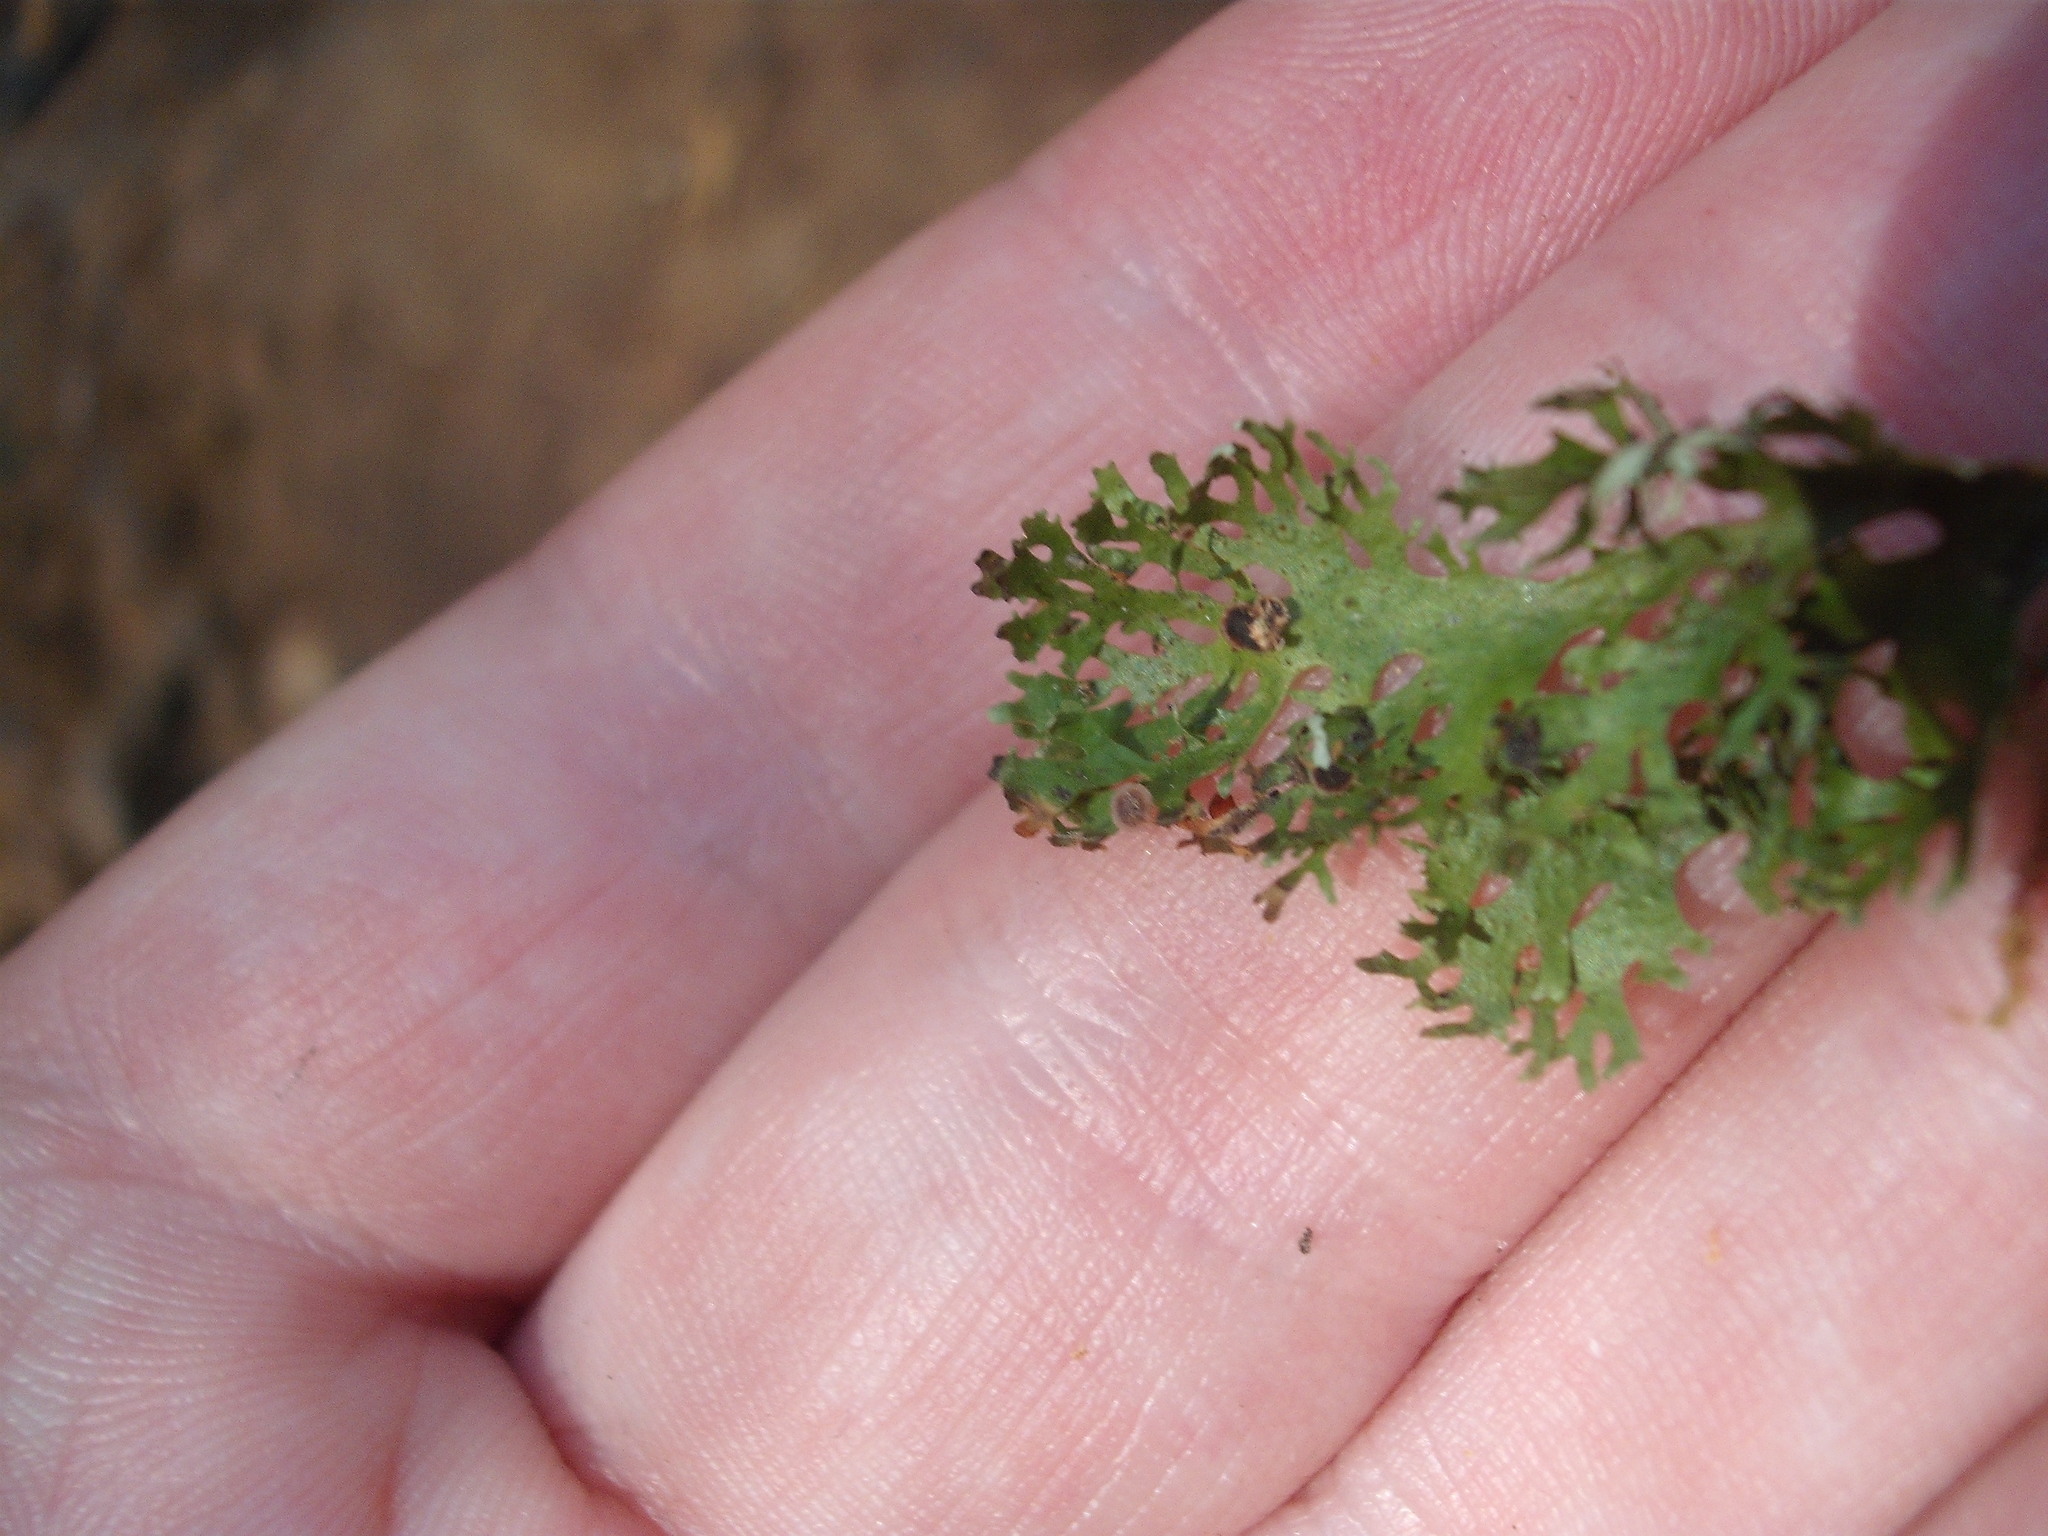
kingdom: Fungi
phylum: Ascomycota
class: Lecanoromycetes
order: Peltigerales
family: Lobariaceae
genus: Sticta
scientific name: Sticta
